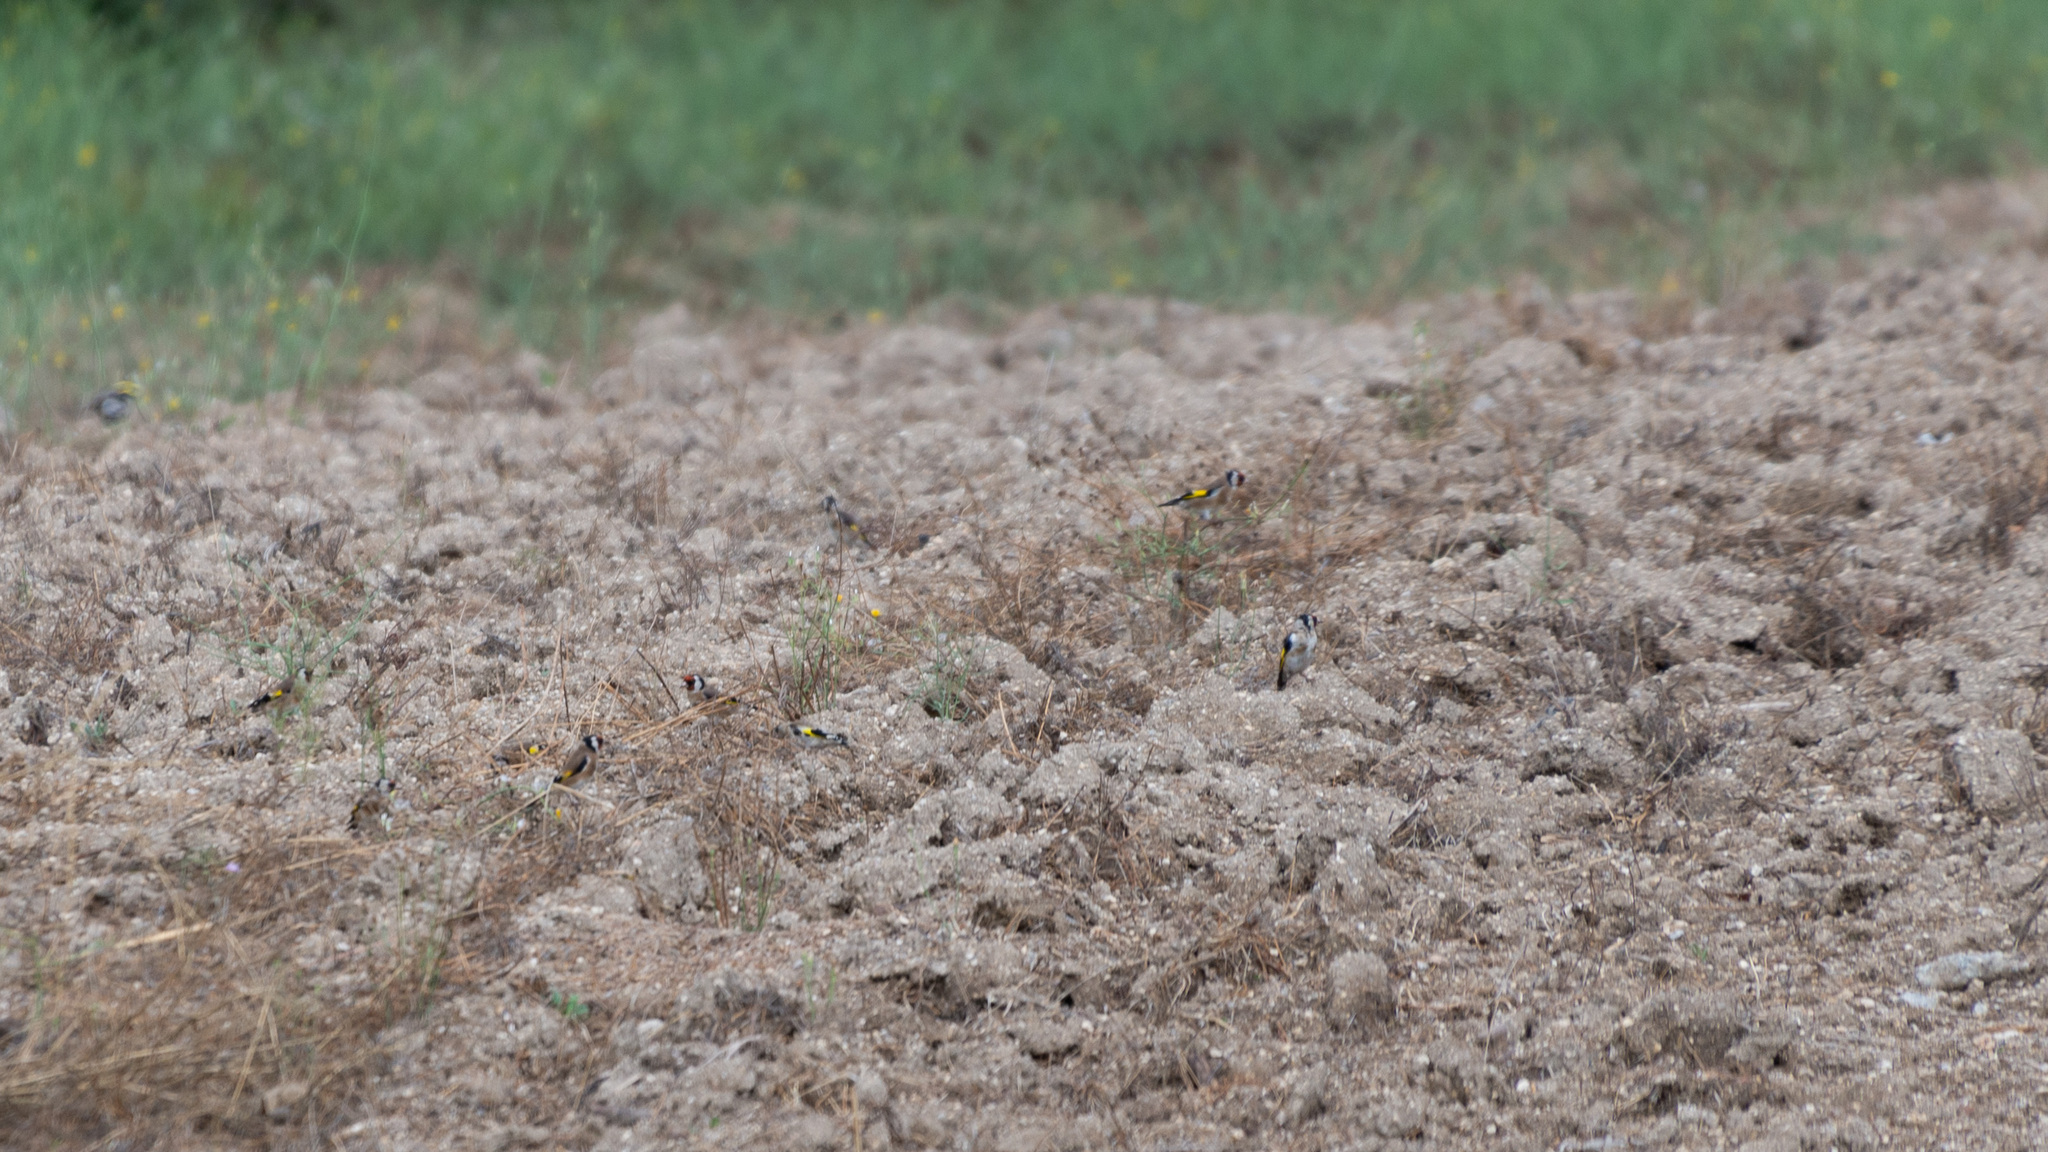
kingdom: Animalia
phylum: Chordata
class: Aves
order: Passeriformes
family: Fringillidae
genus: Carduelis
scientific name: Carduelis carduelis
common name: European goldfinch
